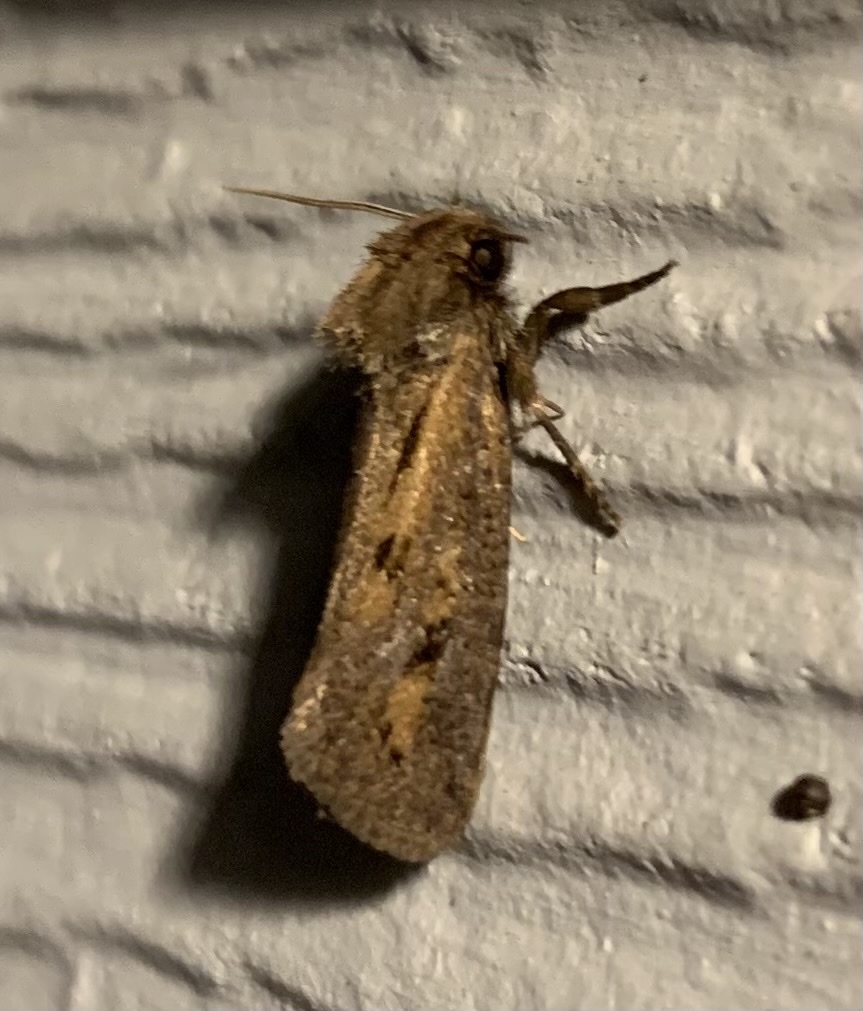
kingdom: Animalia
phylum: Arthropoda
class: Insecta
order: Lepidoptera
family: Tineidae
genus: Acrolophus
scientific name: Acrolophus popeanella
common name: Clemens' grass tubeworm moth
